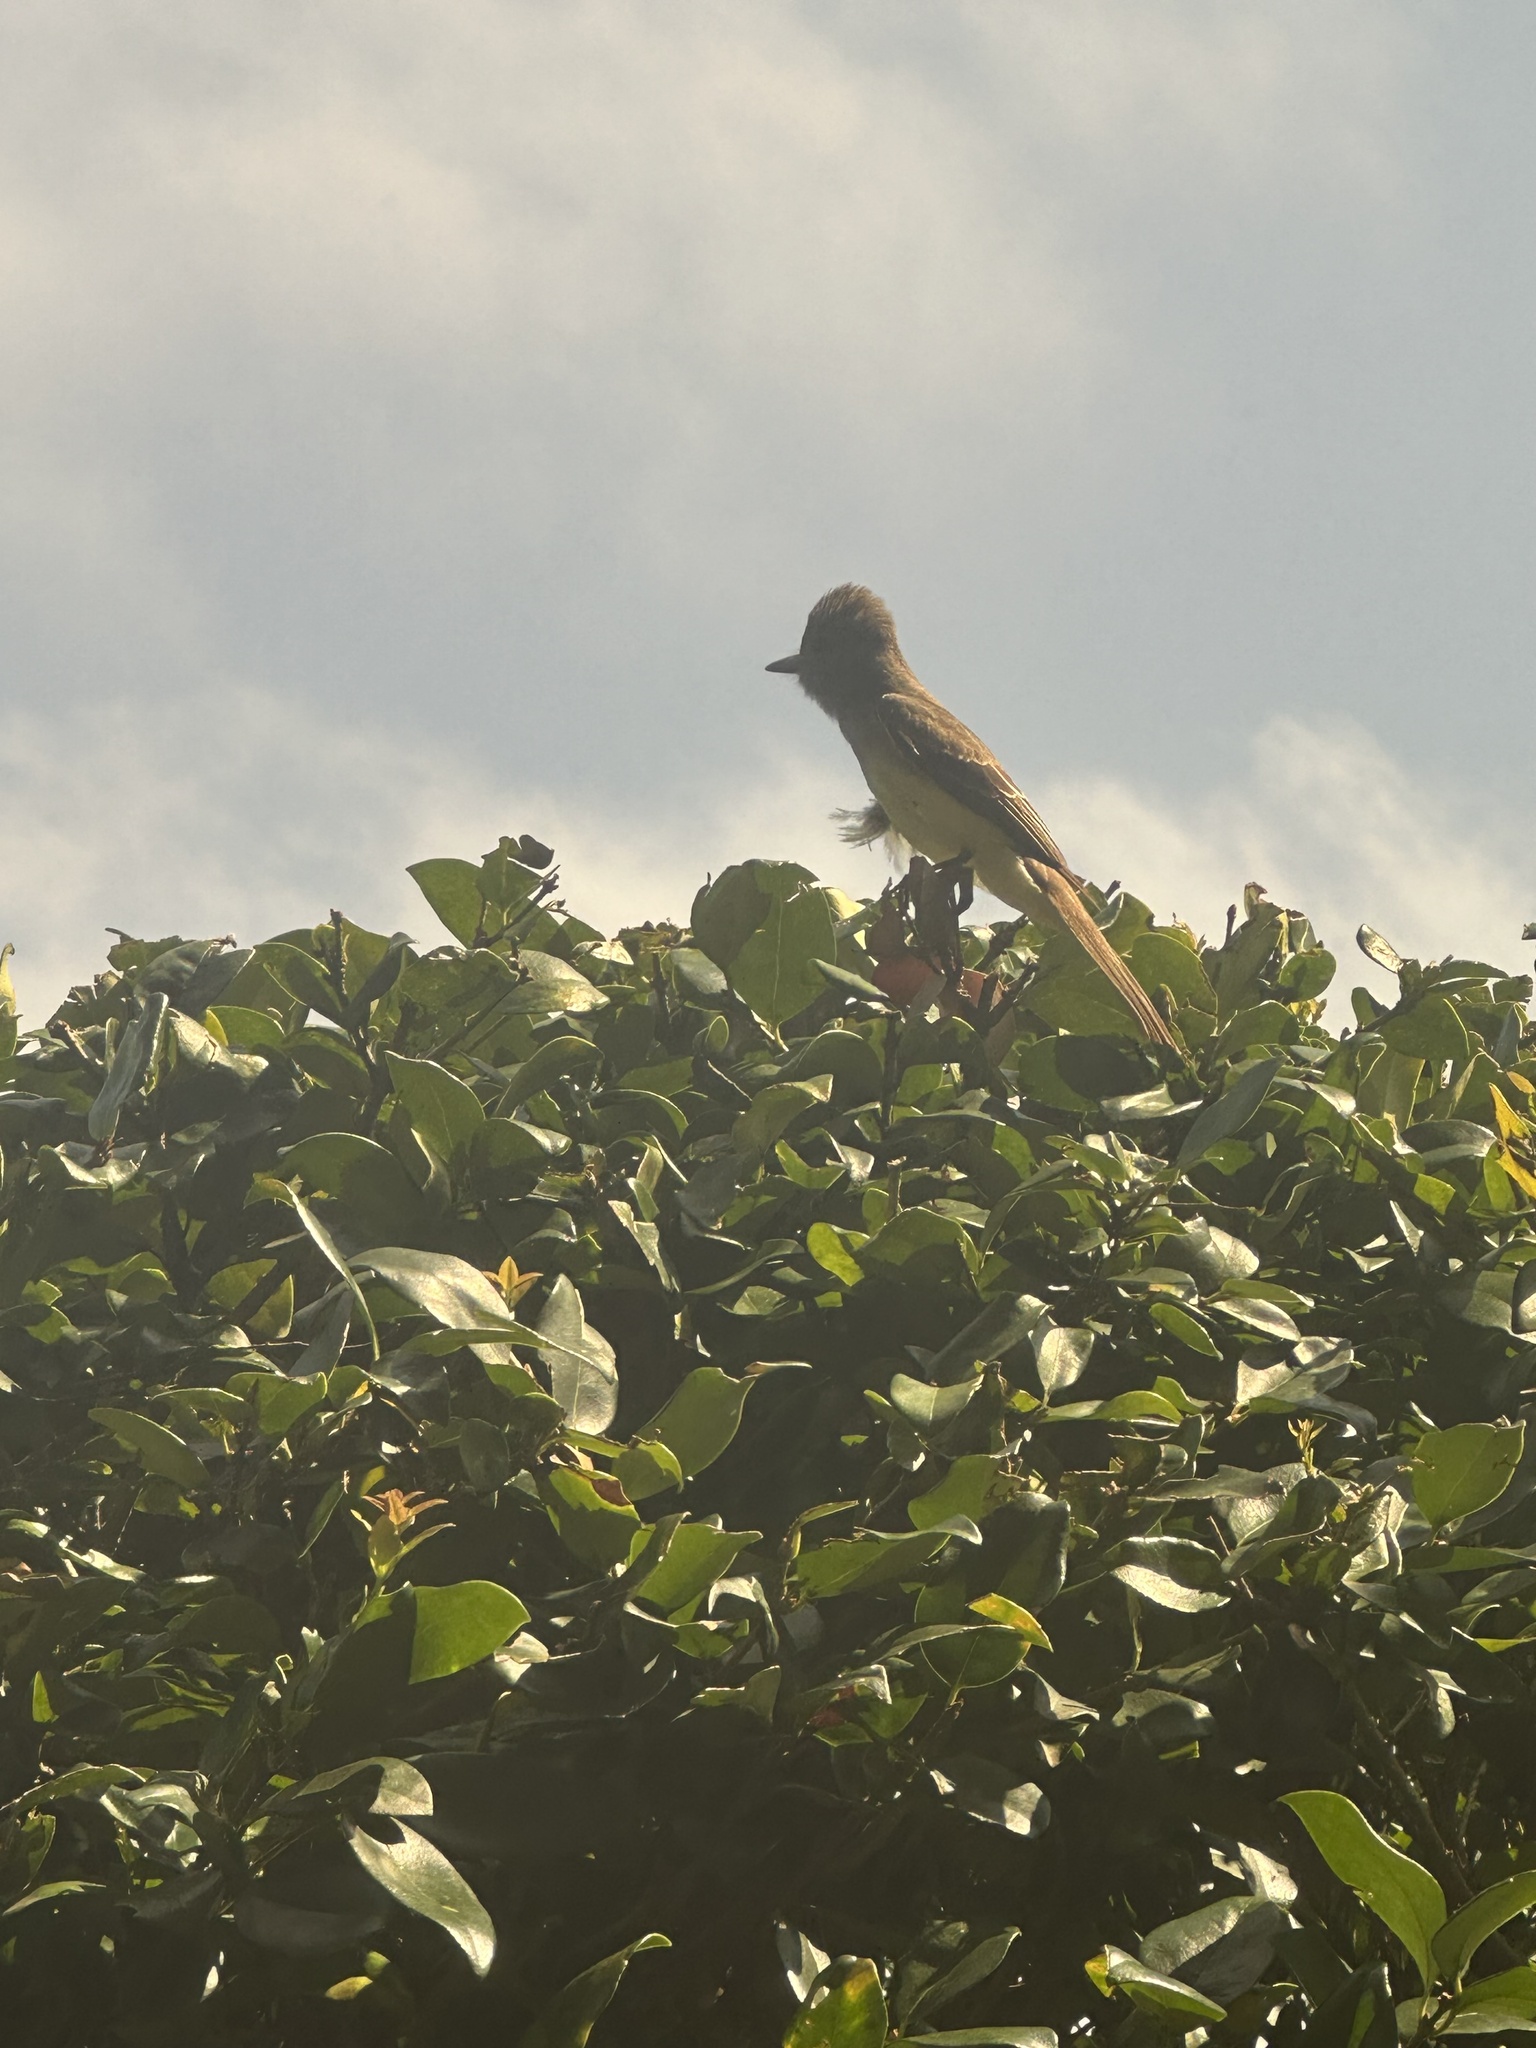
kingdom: Animalia
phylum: Chordata
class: Aves
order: Passeriformes
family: Tyrannidae
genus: Myiarchus
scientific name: Myiarchus crinitus
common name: Great crested flycatcher
